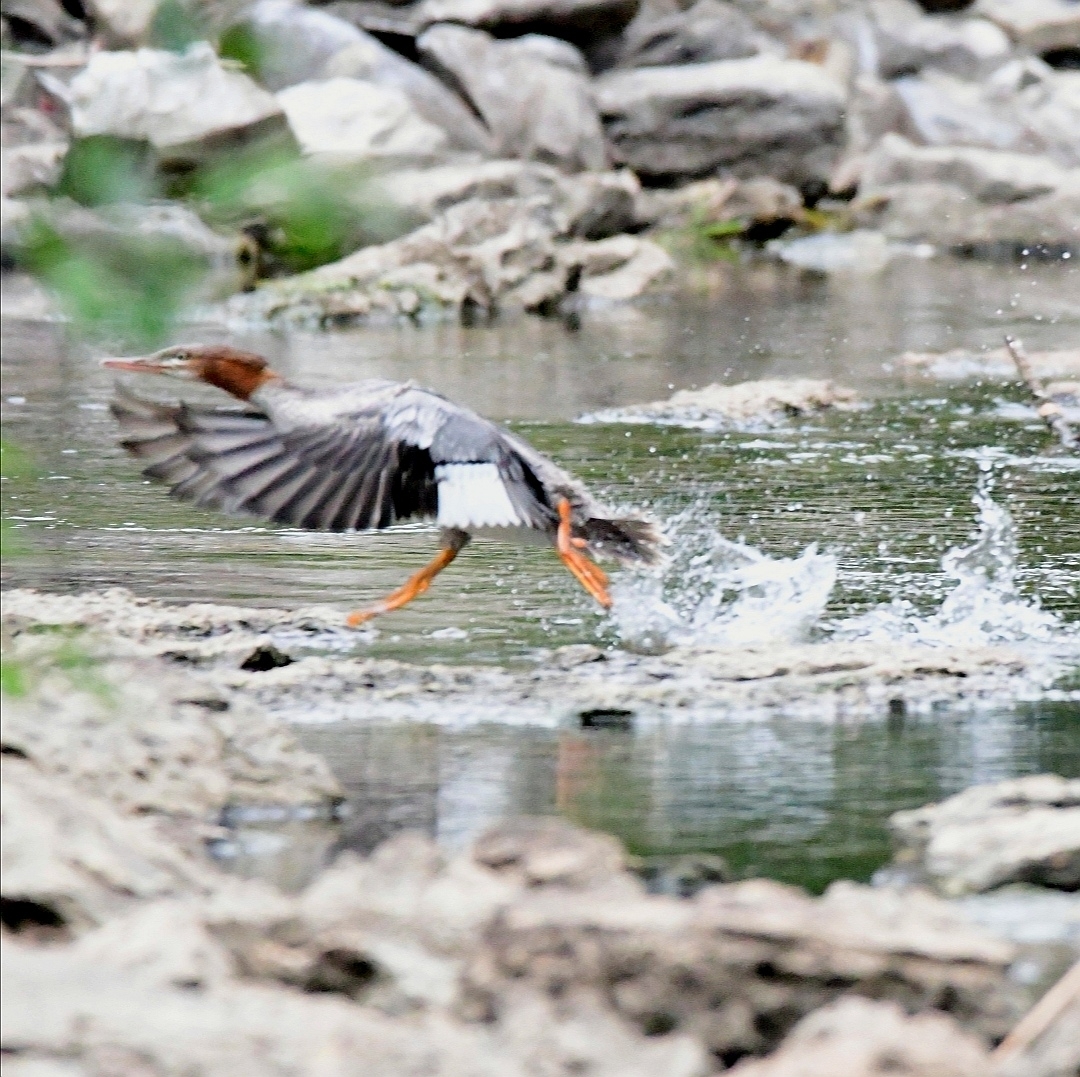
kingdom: Animalia
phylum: Chordata
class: Aves
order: Anseriformes
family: Anatidae
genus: Mergus
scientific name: Mergus merganser
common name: Common merganser
